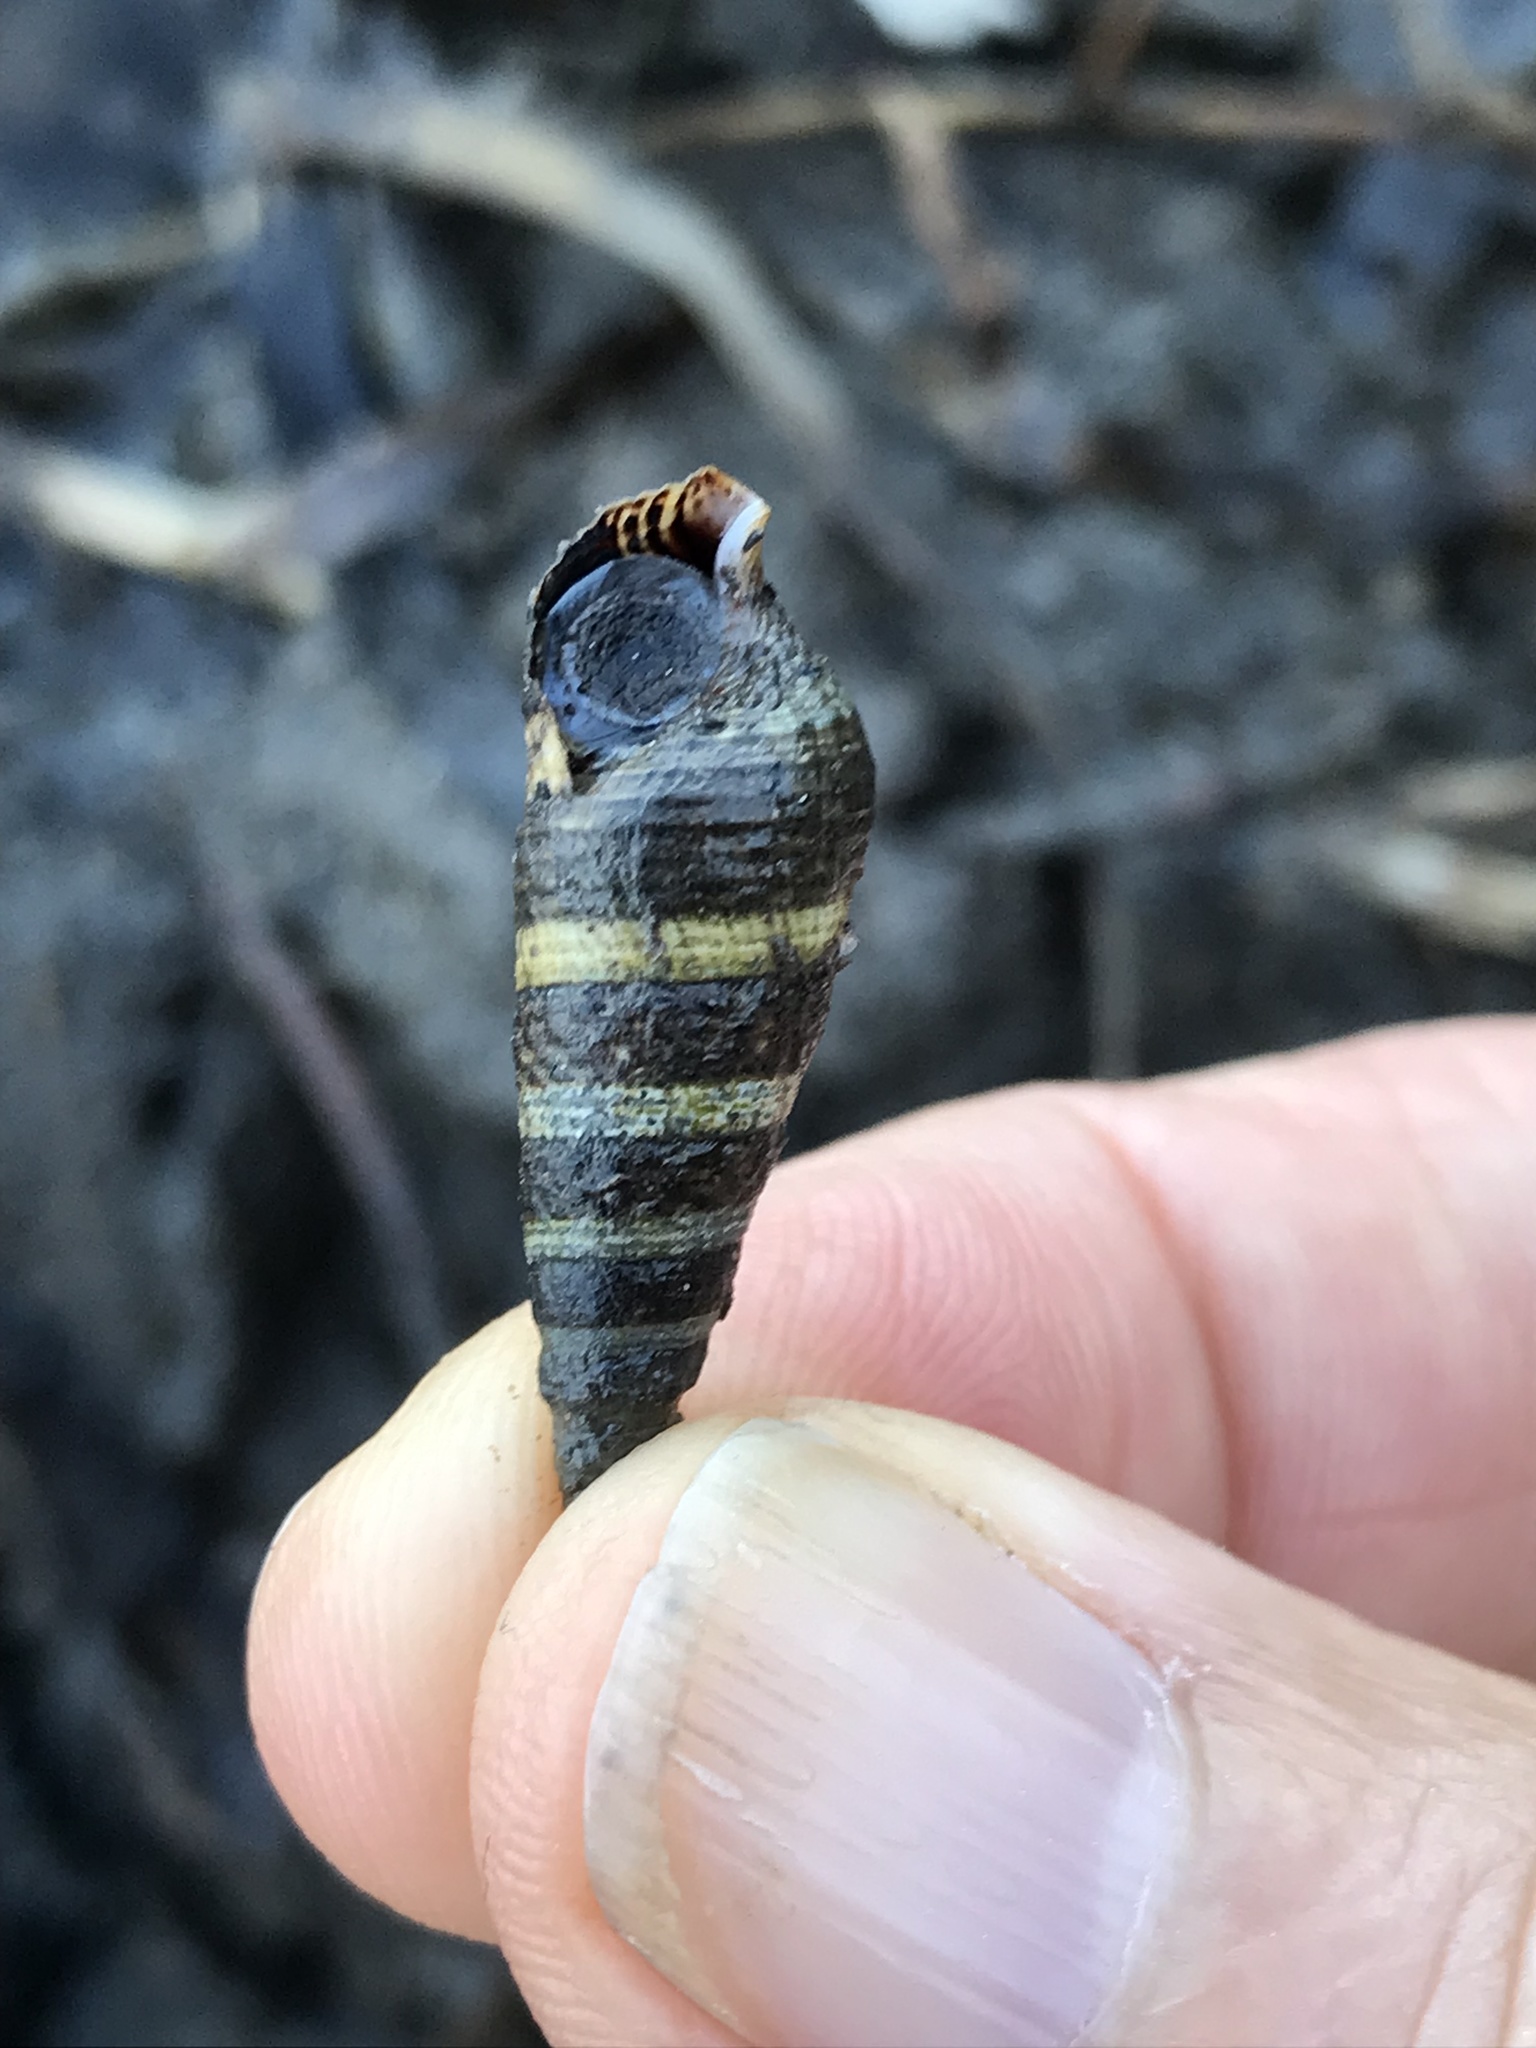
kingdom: Animalia
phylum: Mollusca
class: Gastropoda
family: Batillariidae
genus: Batillaria
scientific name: Batillaria attramentaria
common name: Japanese false cerith
